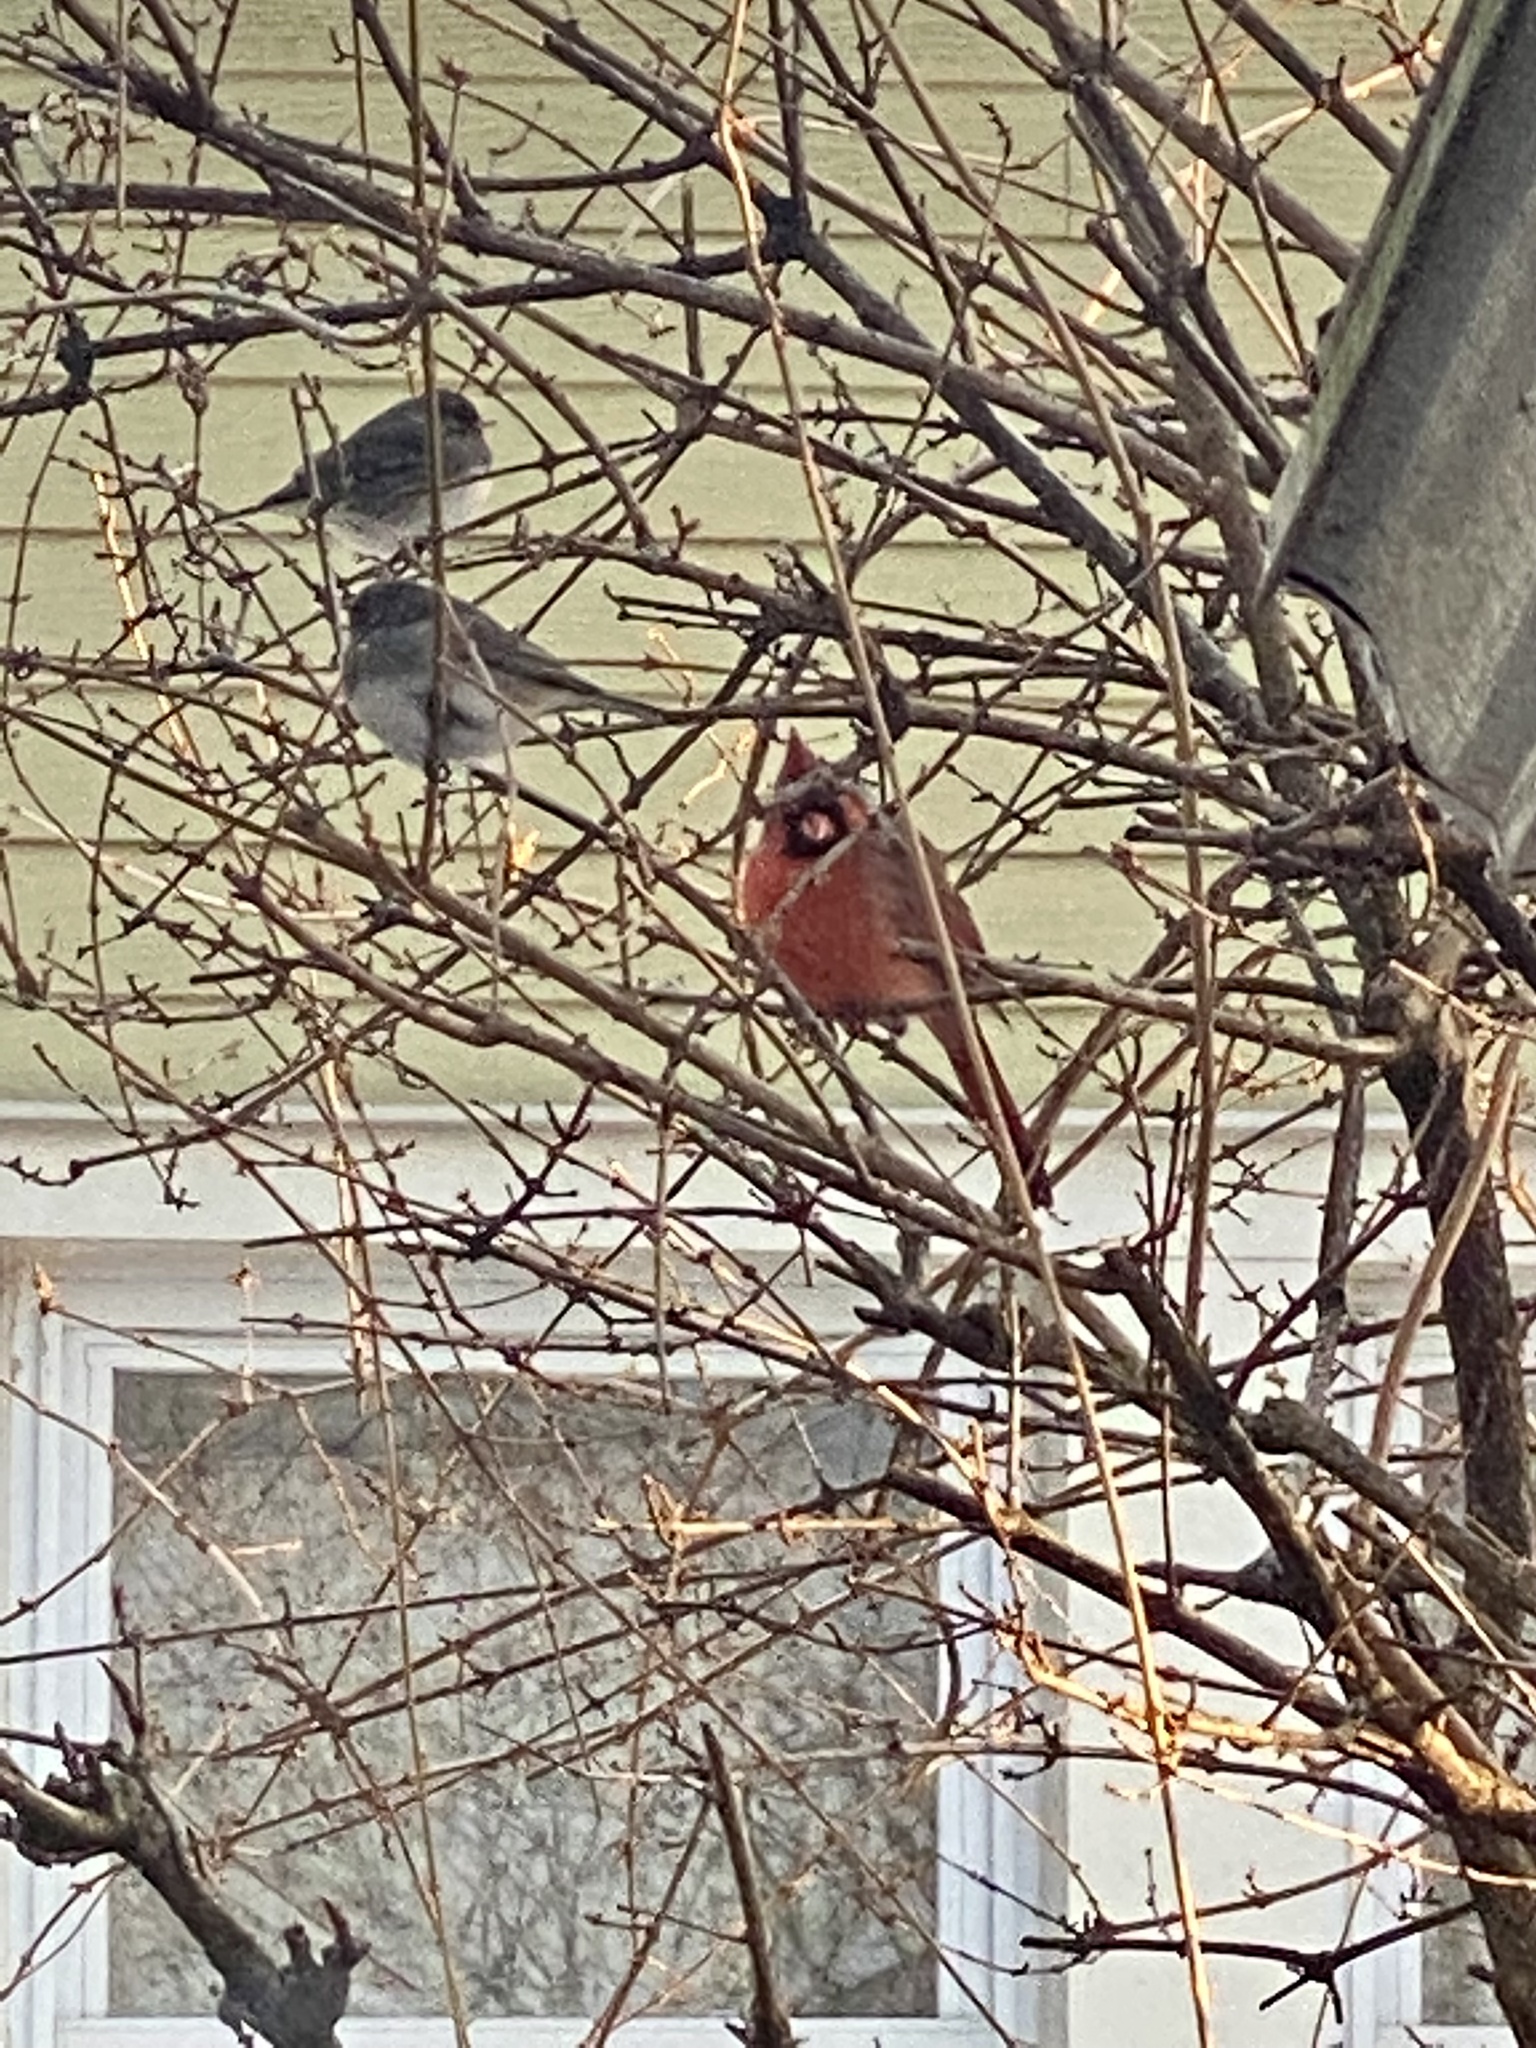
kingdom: Animalia
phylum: Chordata
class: Aves
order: Passeriformes
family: Cardinalidae
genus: Cardinalis
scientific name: Cardinalis cardinalis
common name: Northern cardinal
